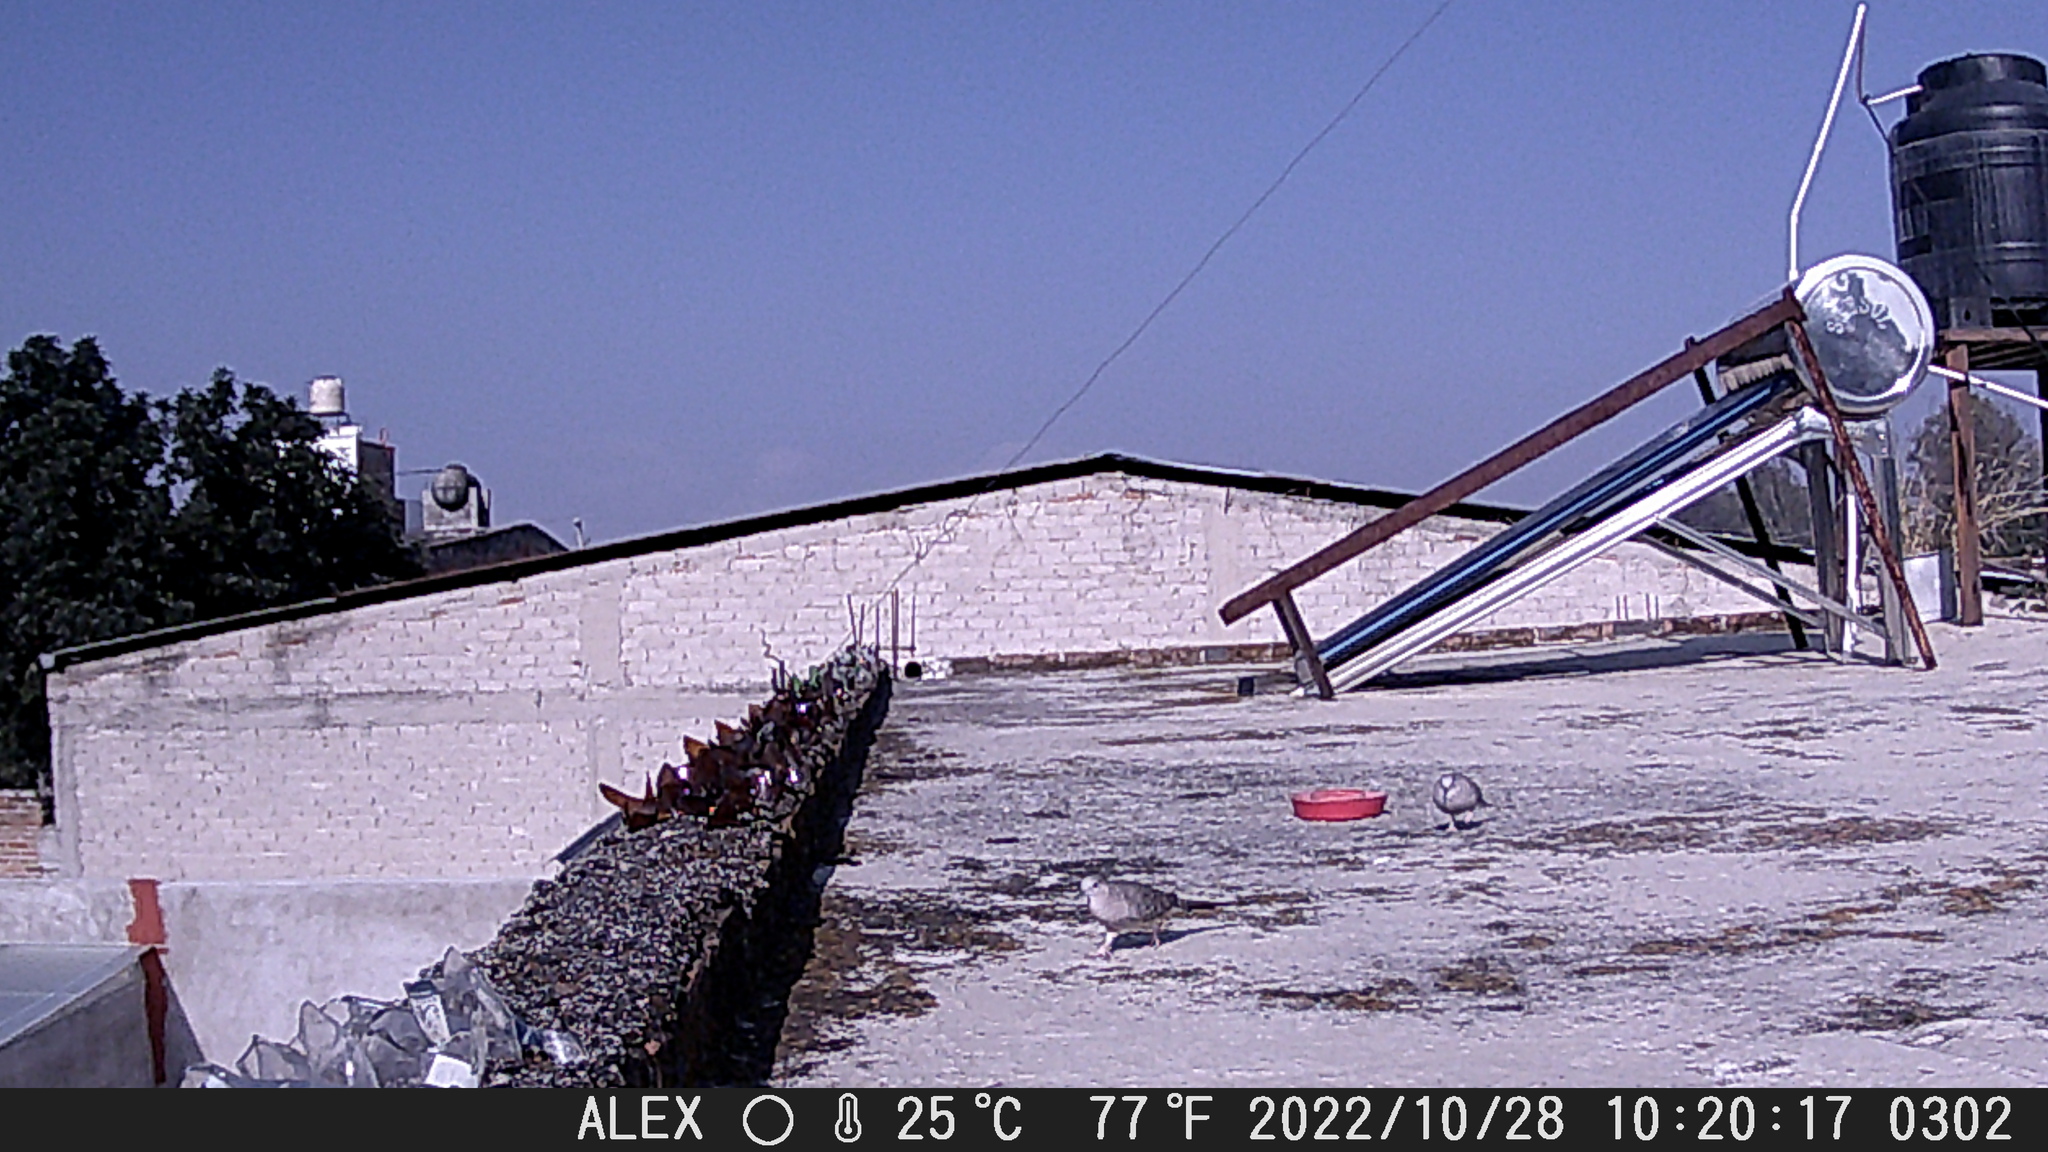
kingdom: Animalia
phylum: Chordata
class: Aves
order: Columbiformes
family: Columbidae
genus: Columbina
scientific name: Columbina inca
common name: Inca dove
